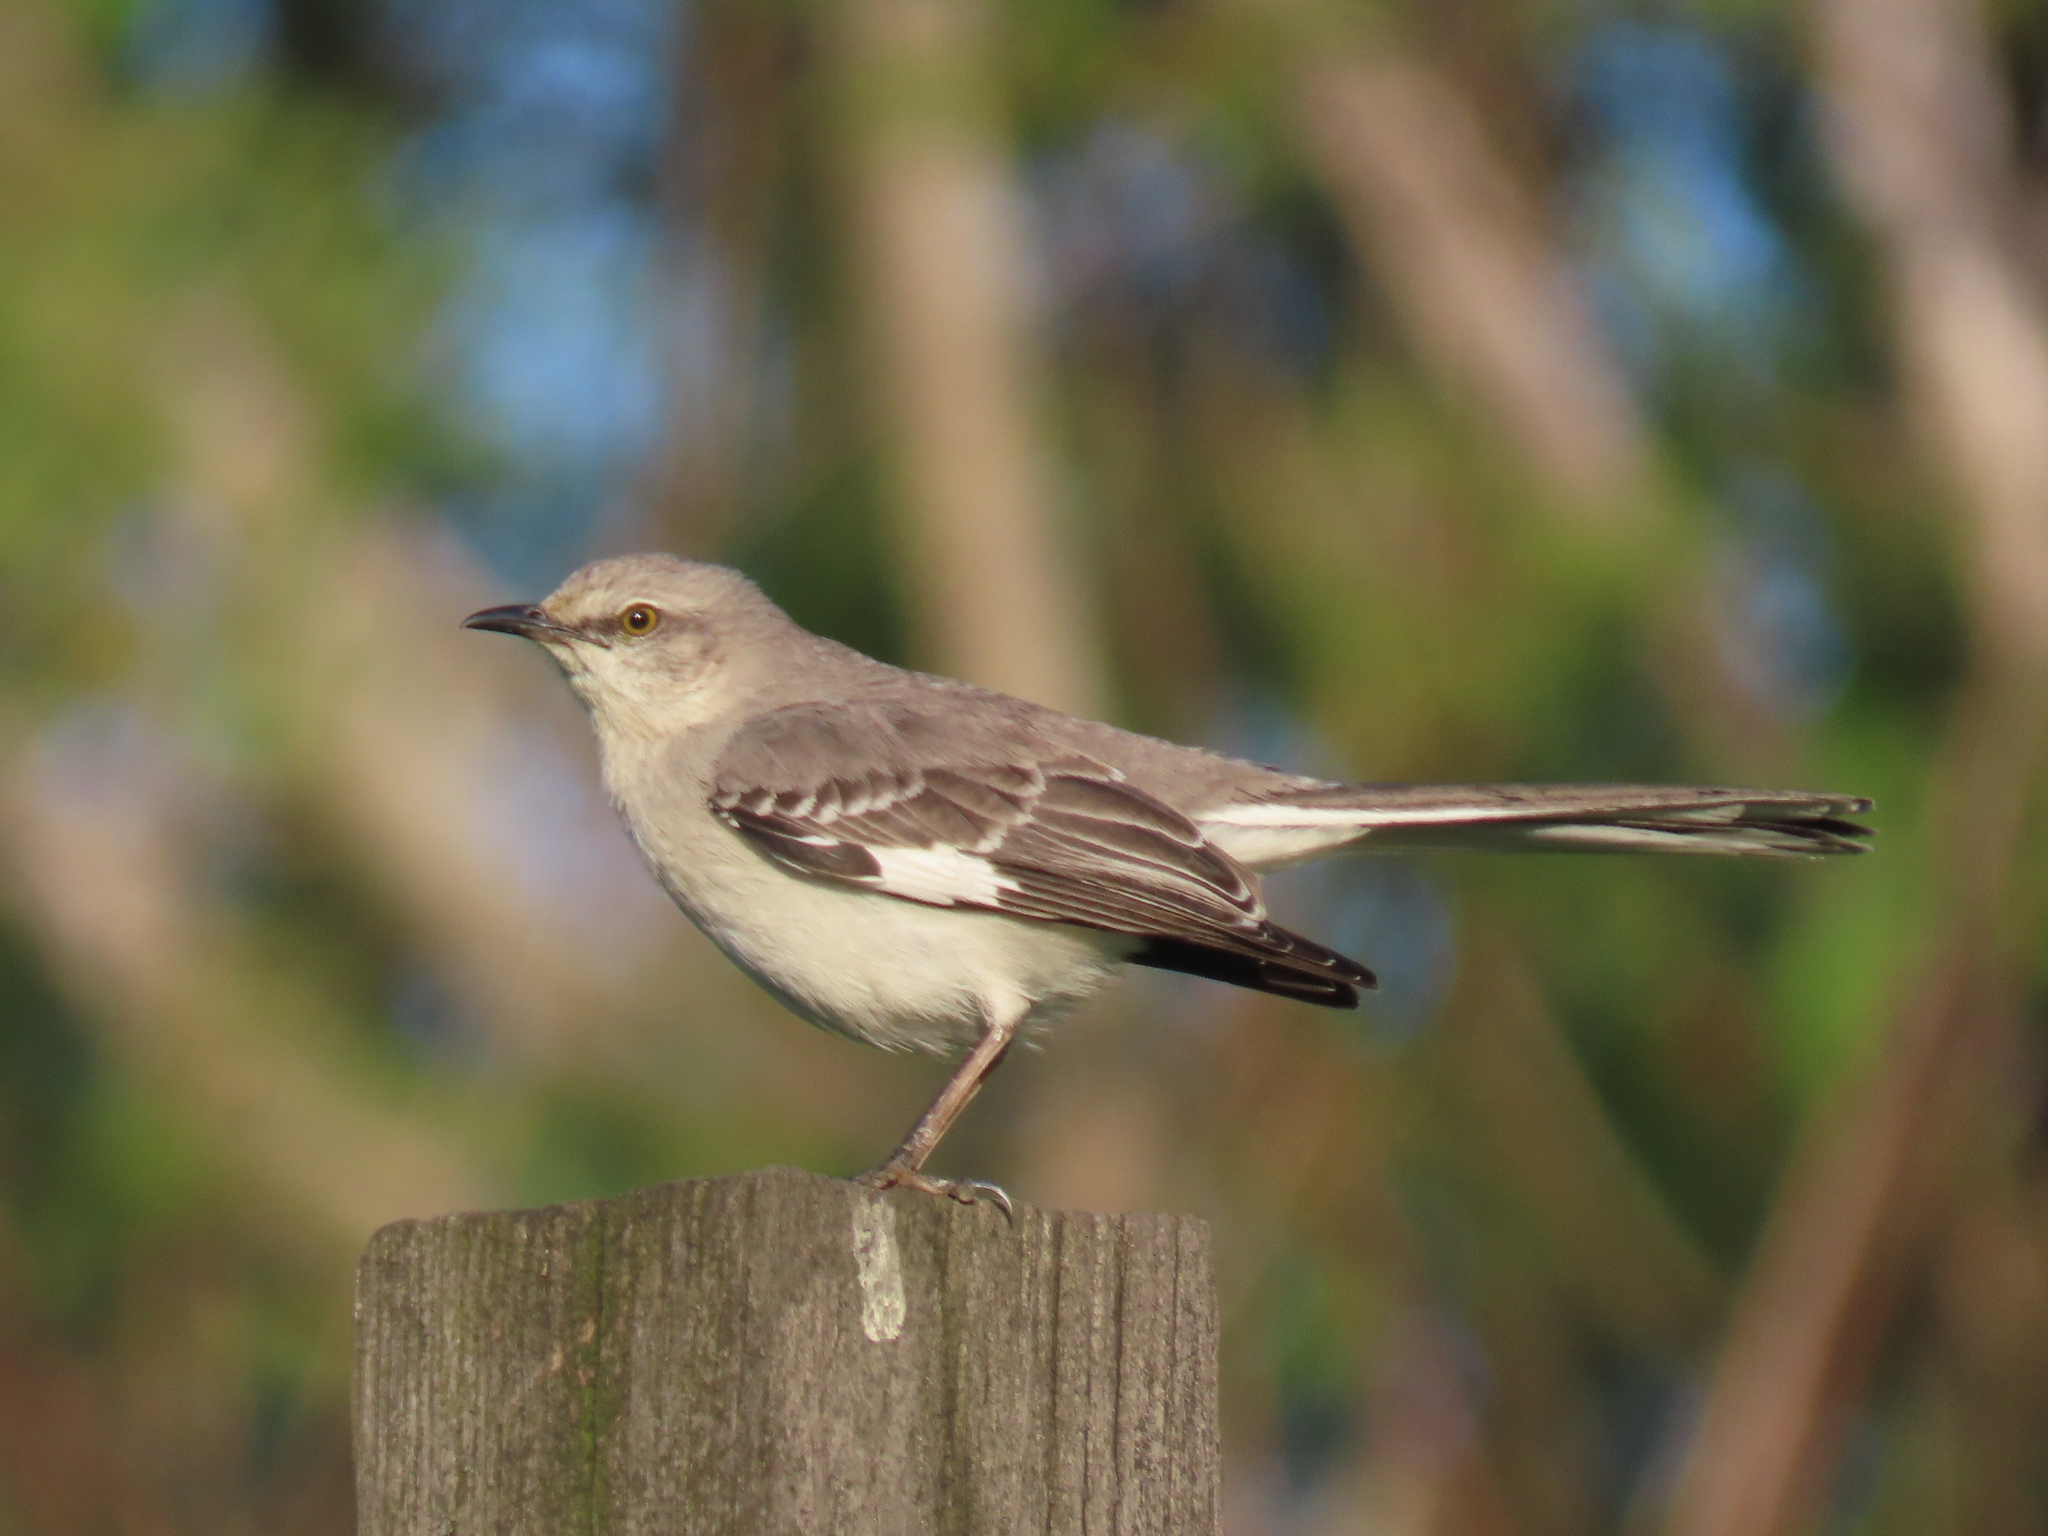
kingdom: Animalia
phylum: Chordata
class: Aves
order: Passeriformes
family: Mimidae
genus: Mimus
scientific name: Mimus polyglottos
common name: Northern mockingbird
